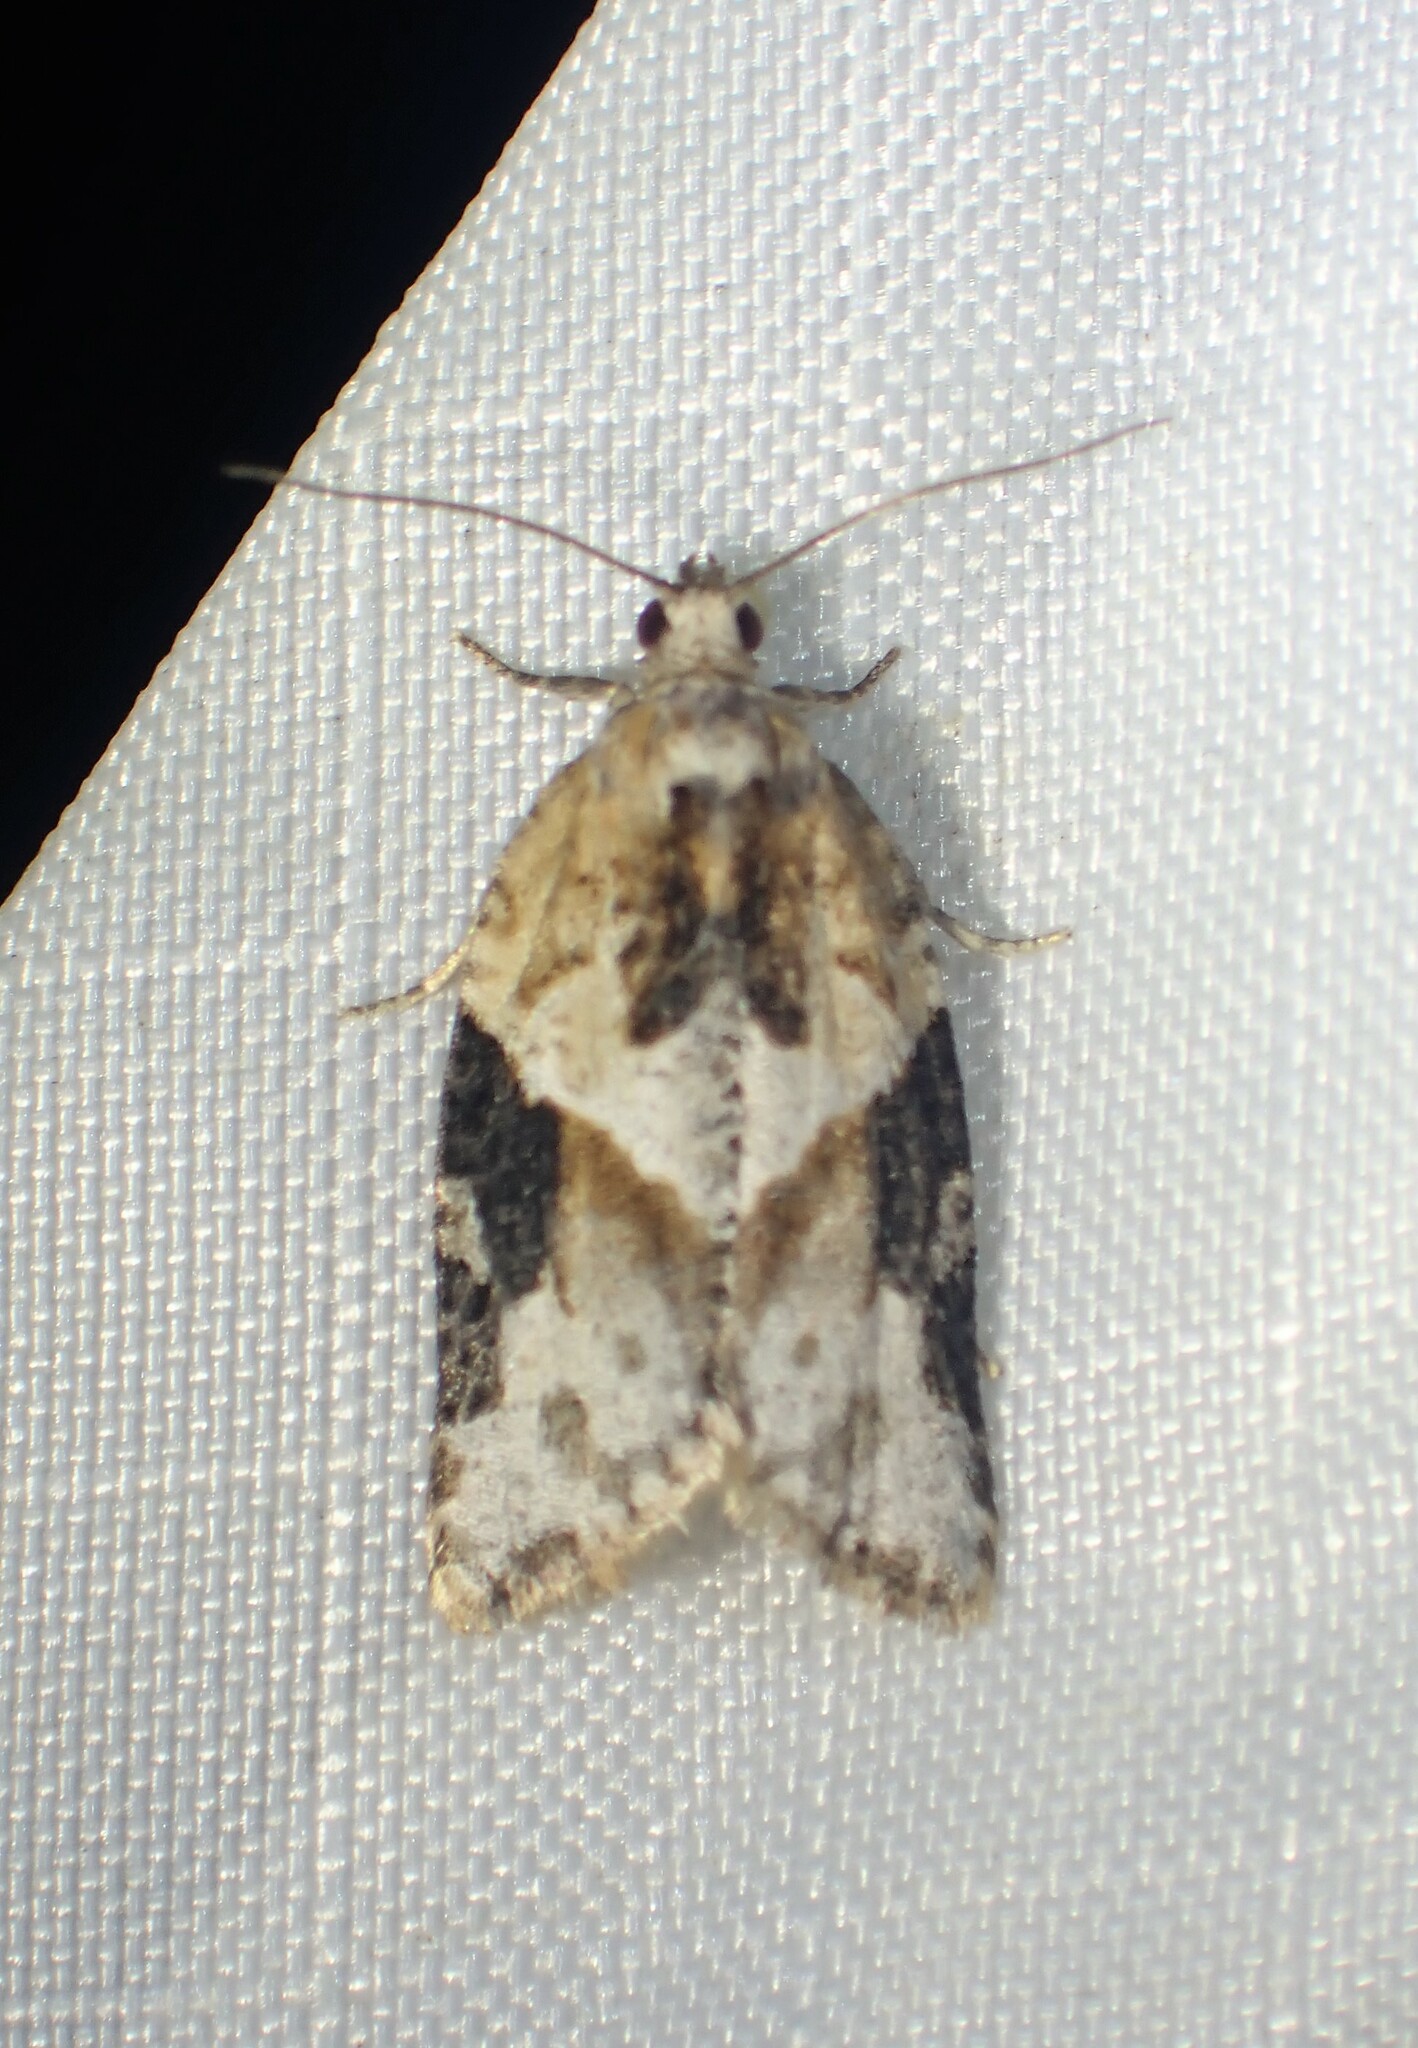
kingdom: Animalia
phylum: Arthropoda
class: Insecta
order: Lepidoptera
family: Tortricidae
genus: Argyrotaenia
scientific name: Argyrotaenia mariana
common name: Gray-banded leafroller moth
